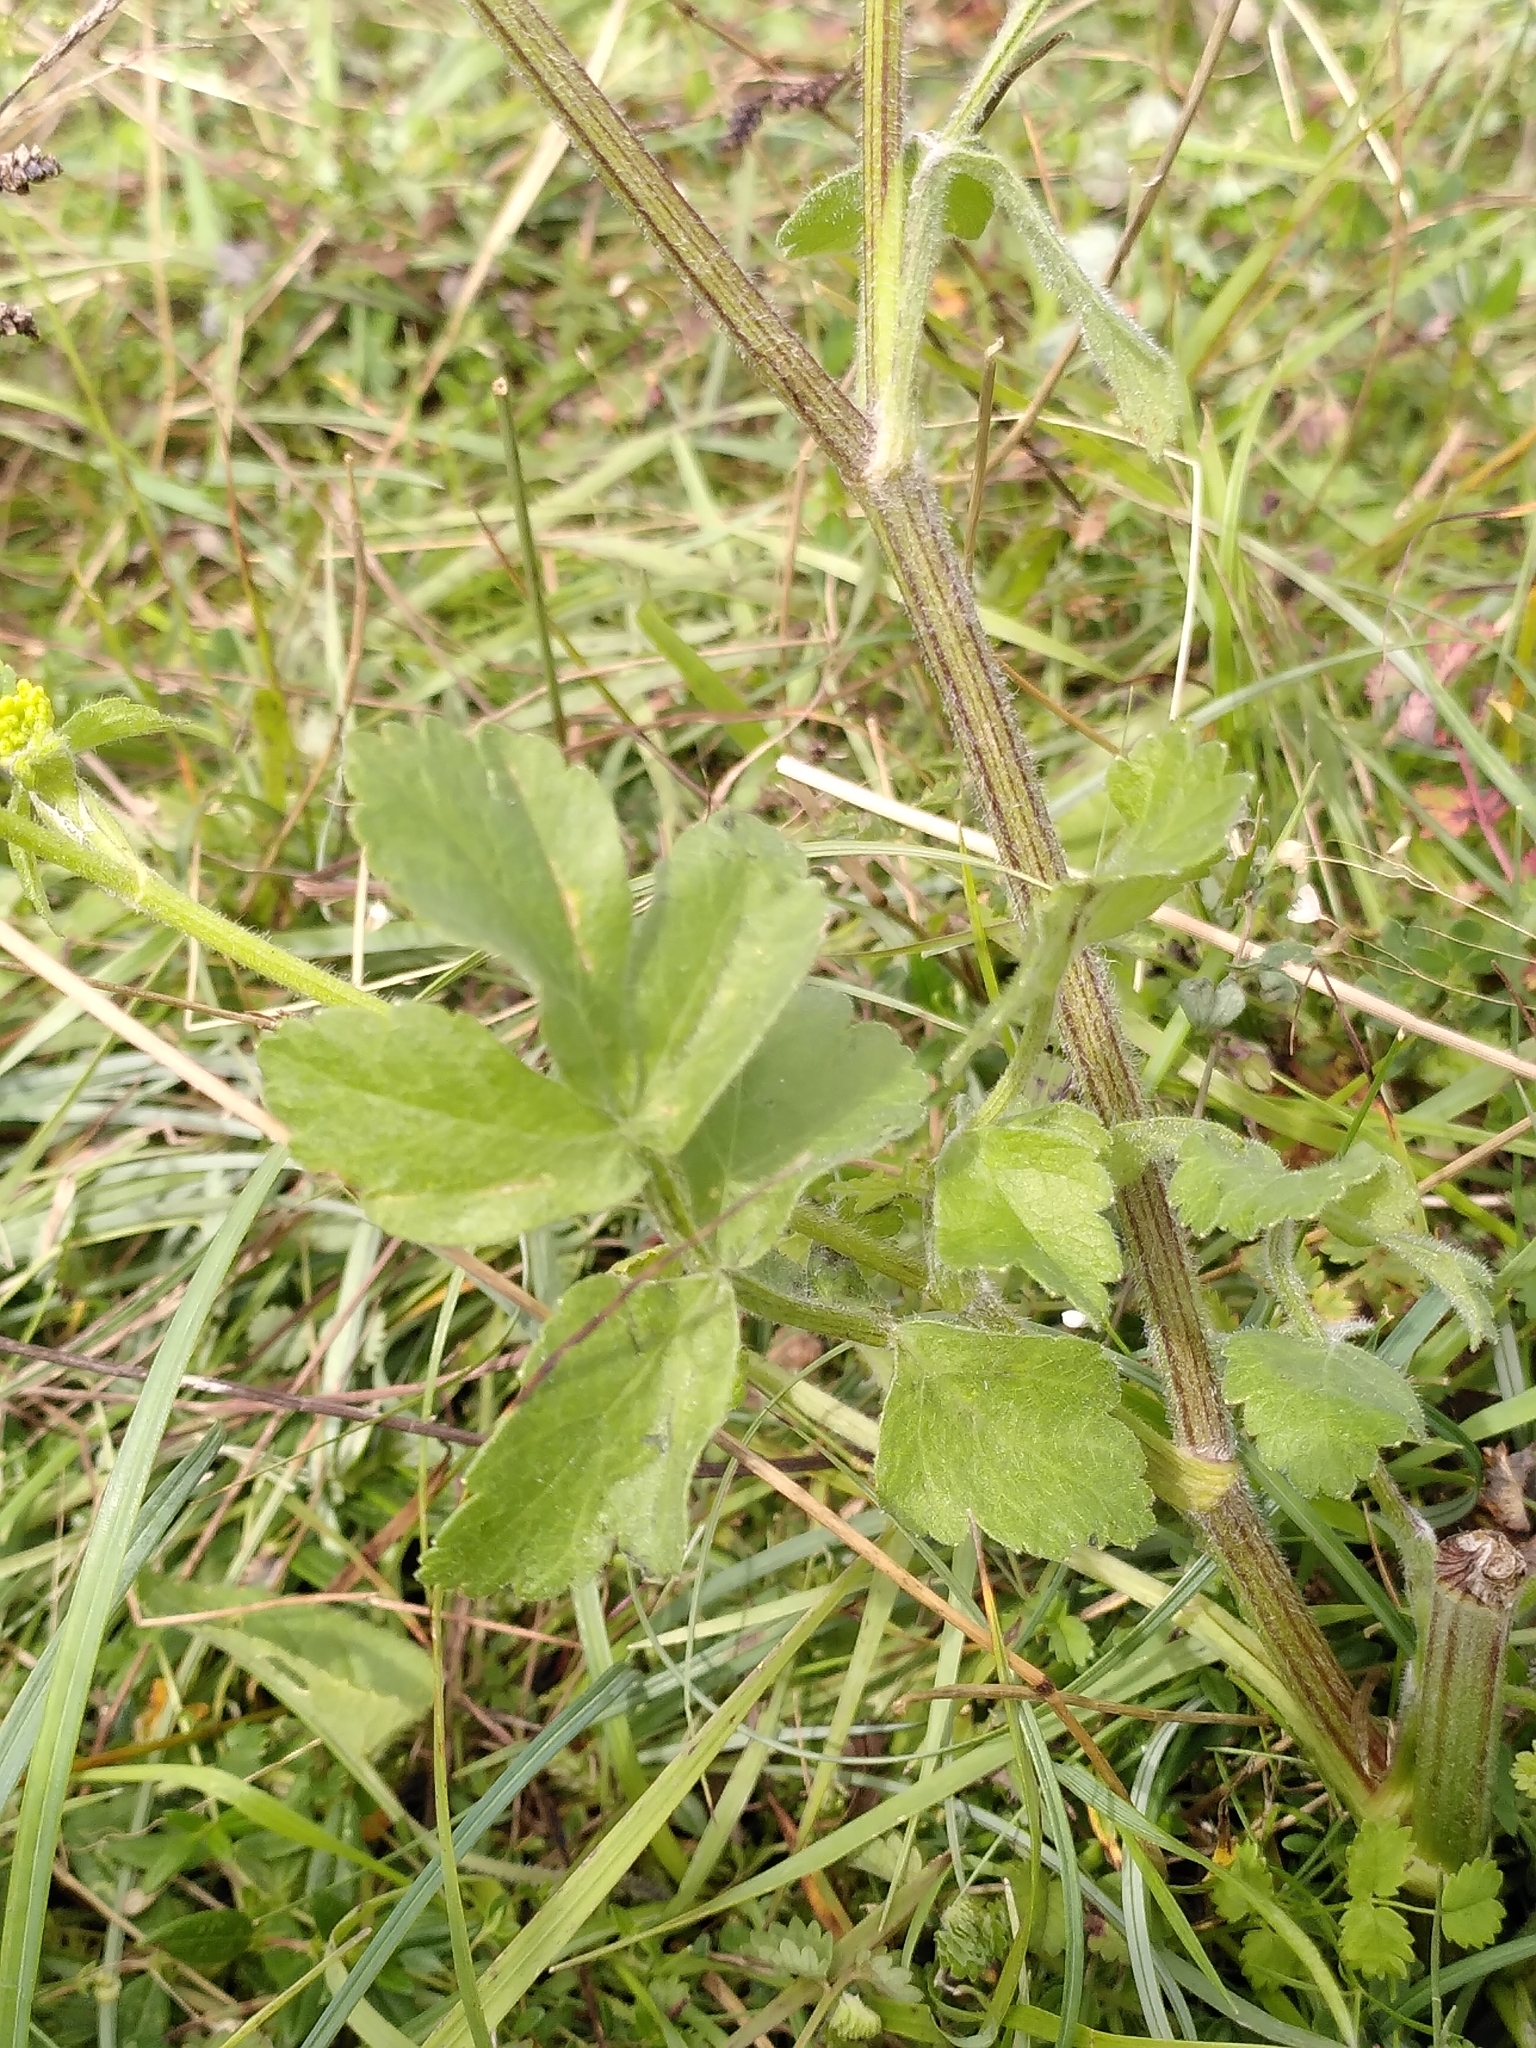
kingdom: Plantae
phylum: Tracheophyta
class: Magnoliopsida
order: Apiales
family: Apiaceae
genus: Pastinaca
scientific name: Pastinaca sativa
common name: Wild parsnip
